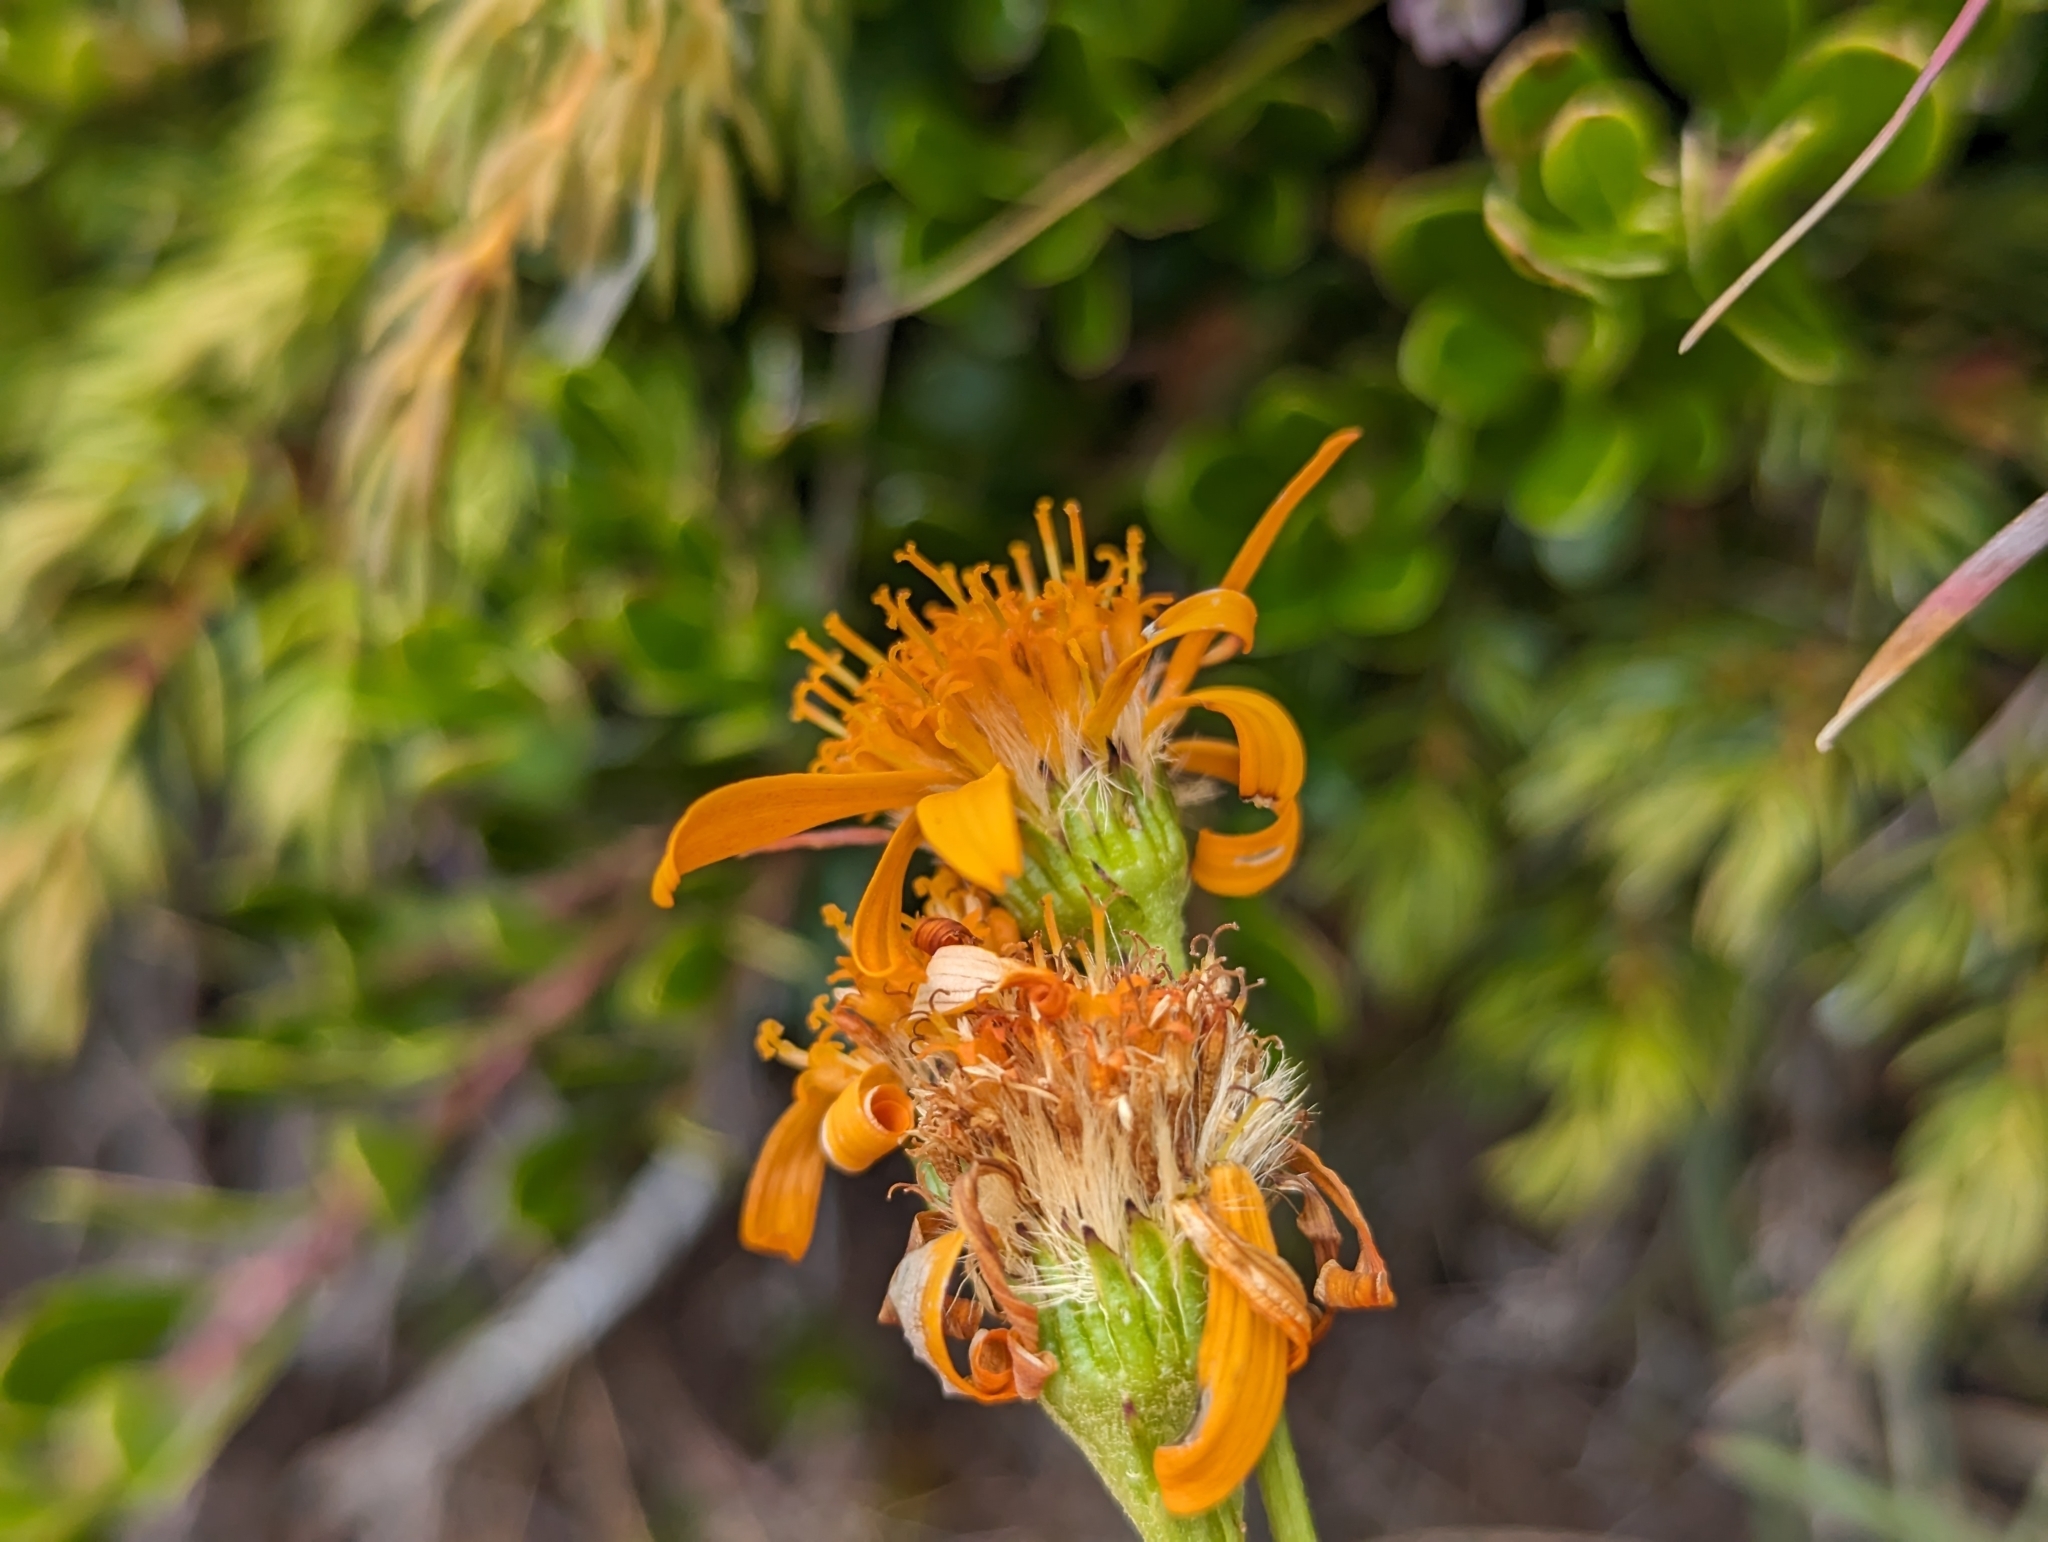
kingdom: Plantae
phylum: Tracheophyta
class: Magnoliopsida
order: Asterales
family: Asteraceae
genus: Jacobaea
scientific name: Jacobaea abrotanifolia
